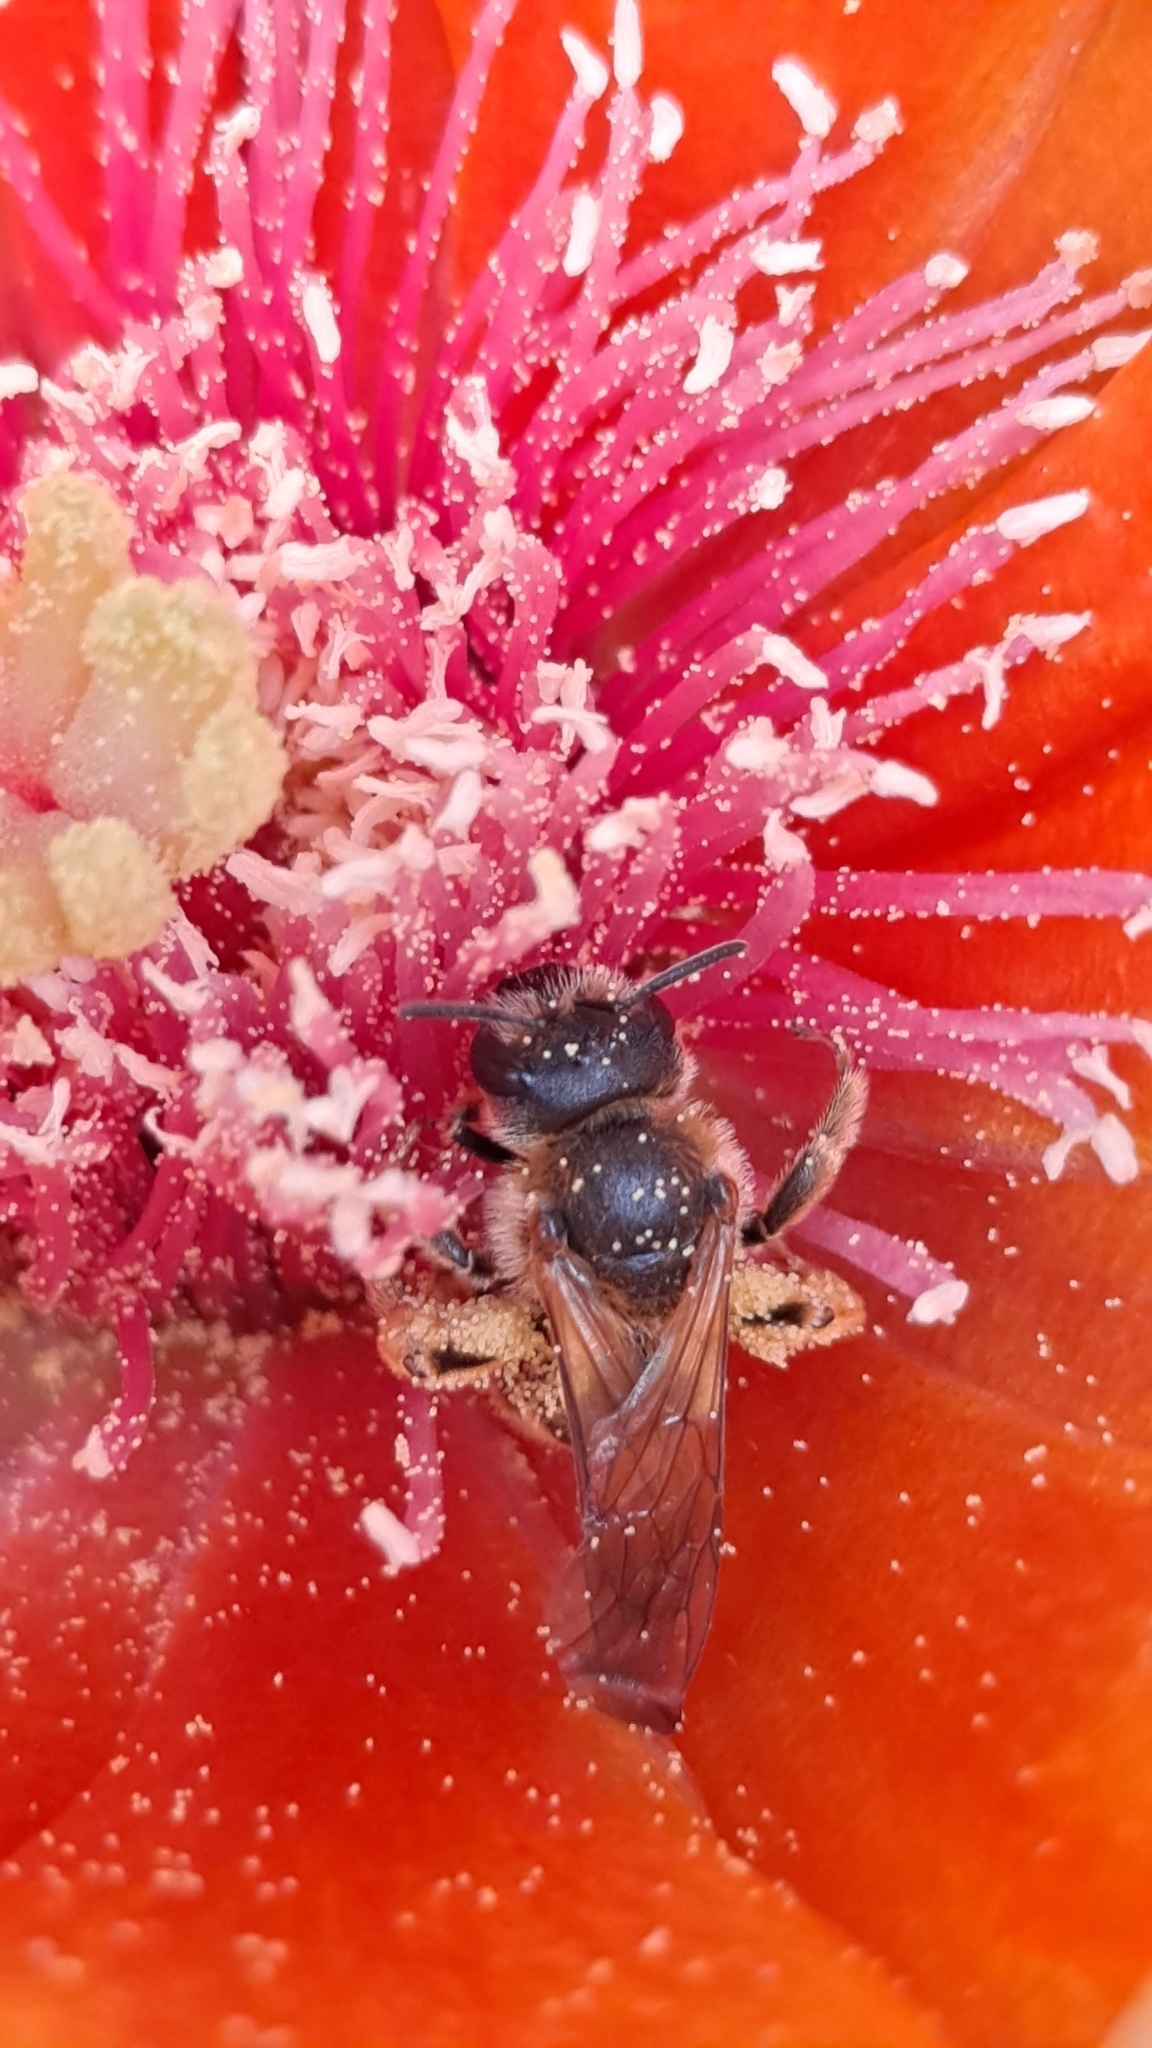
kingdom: Animalia
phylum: Arthropoda
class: Insecta
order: Hymenoptera
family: Halictidae
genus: Halictus
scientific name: Halictus scabiosae
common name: Great banded furrow bee
